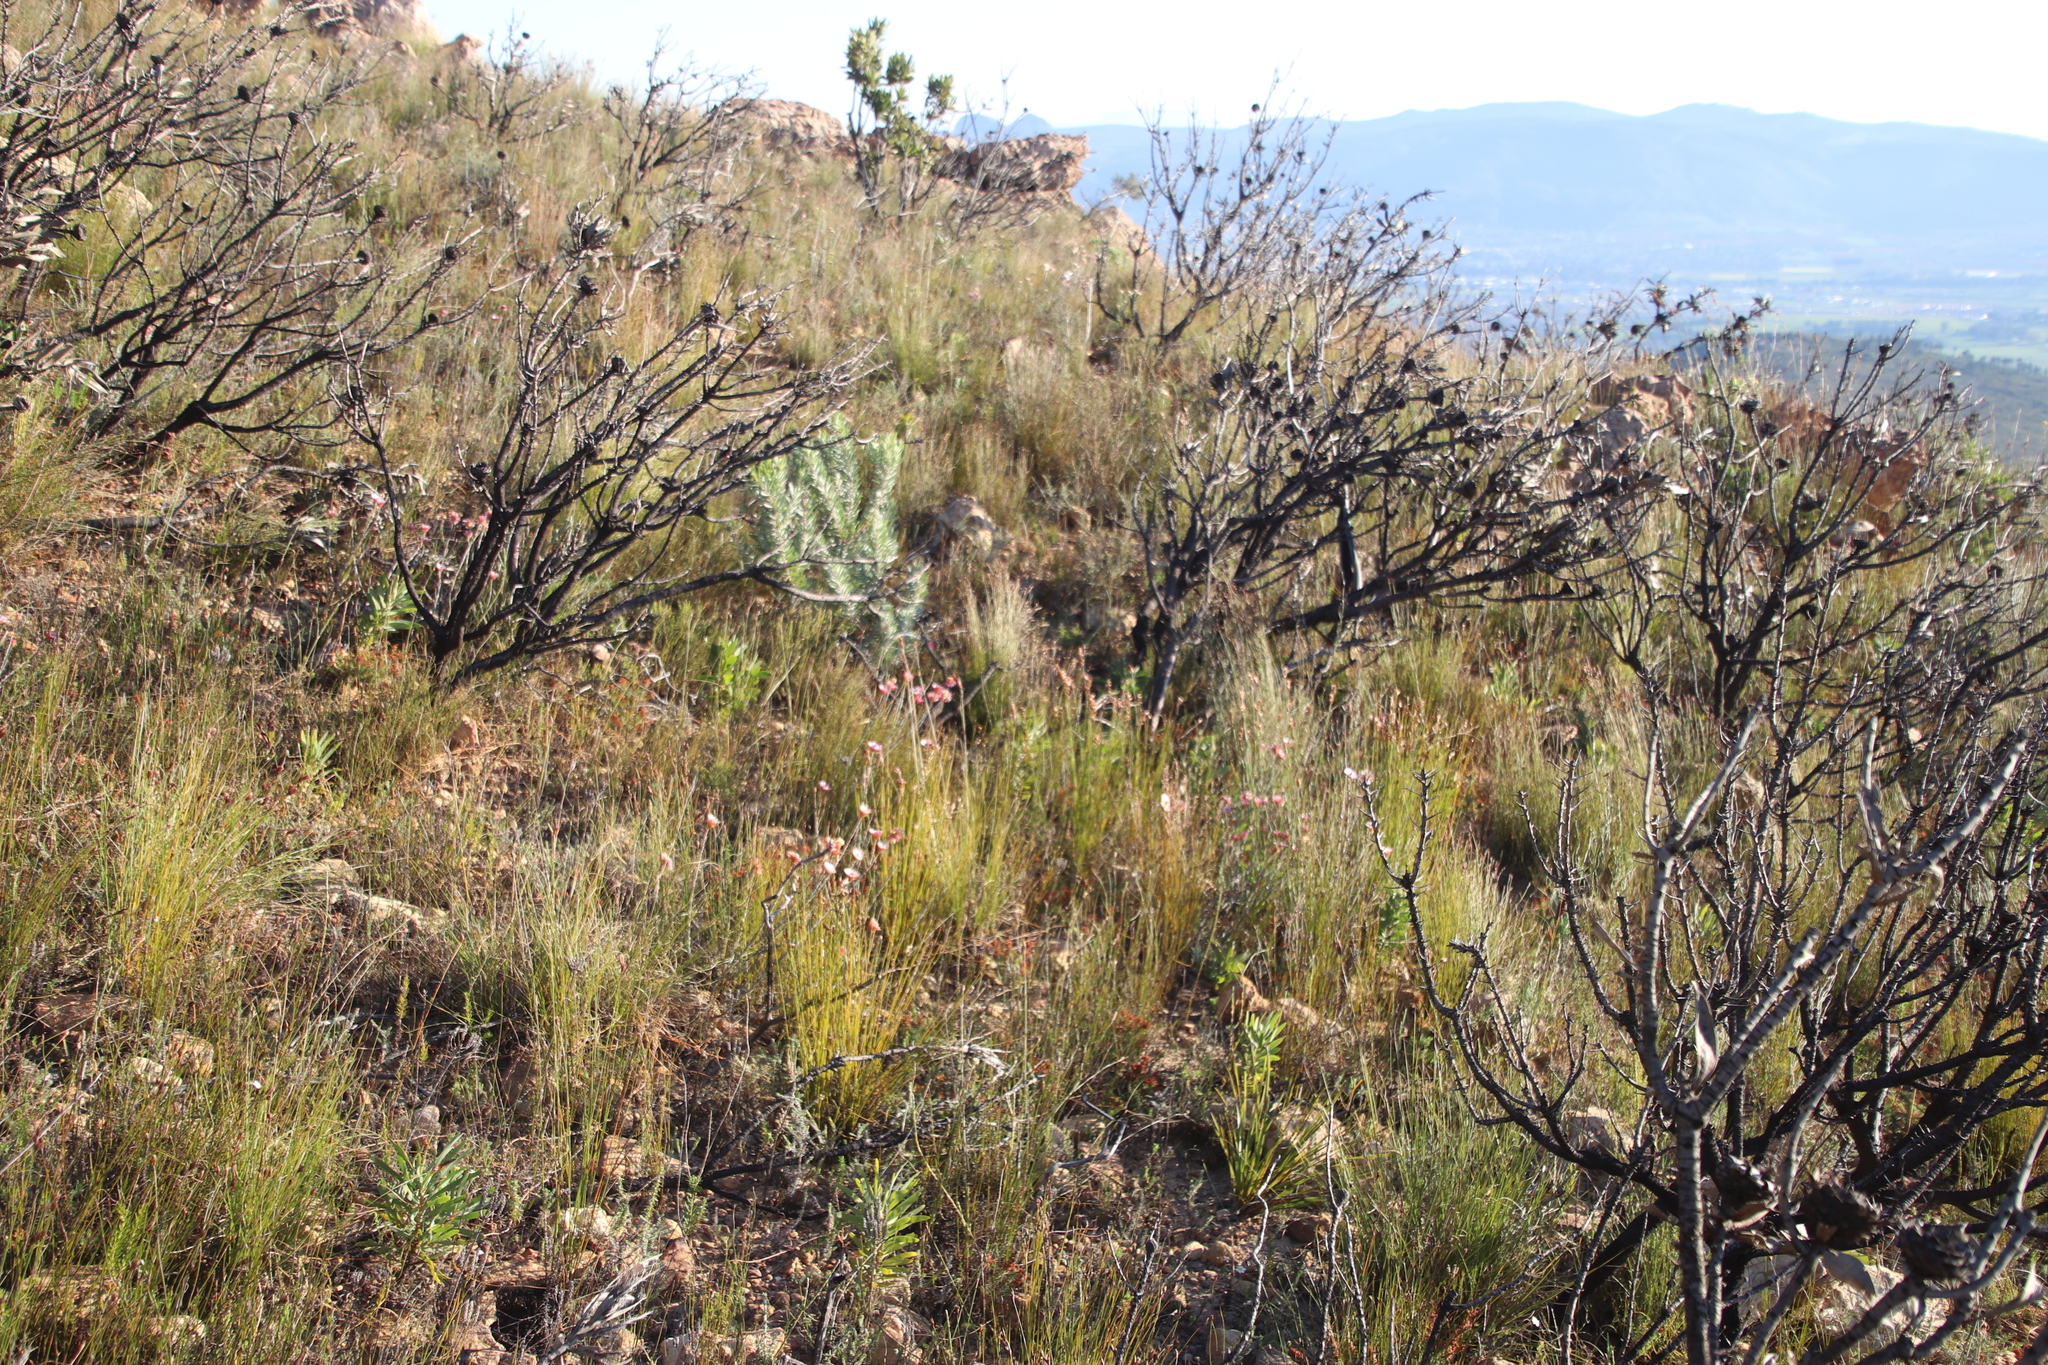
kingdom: Plantae
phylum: Tracheophyta
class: Magnoliopsida
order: Asterales
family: Asteraceae
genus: Syncarpha
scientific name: Syncarpha canescens
